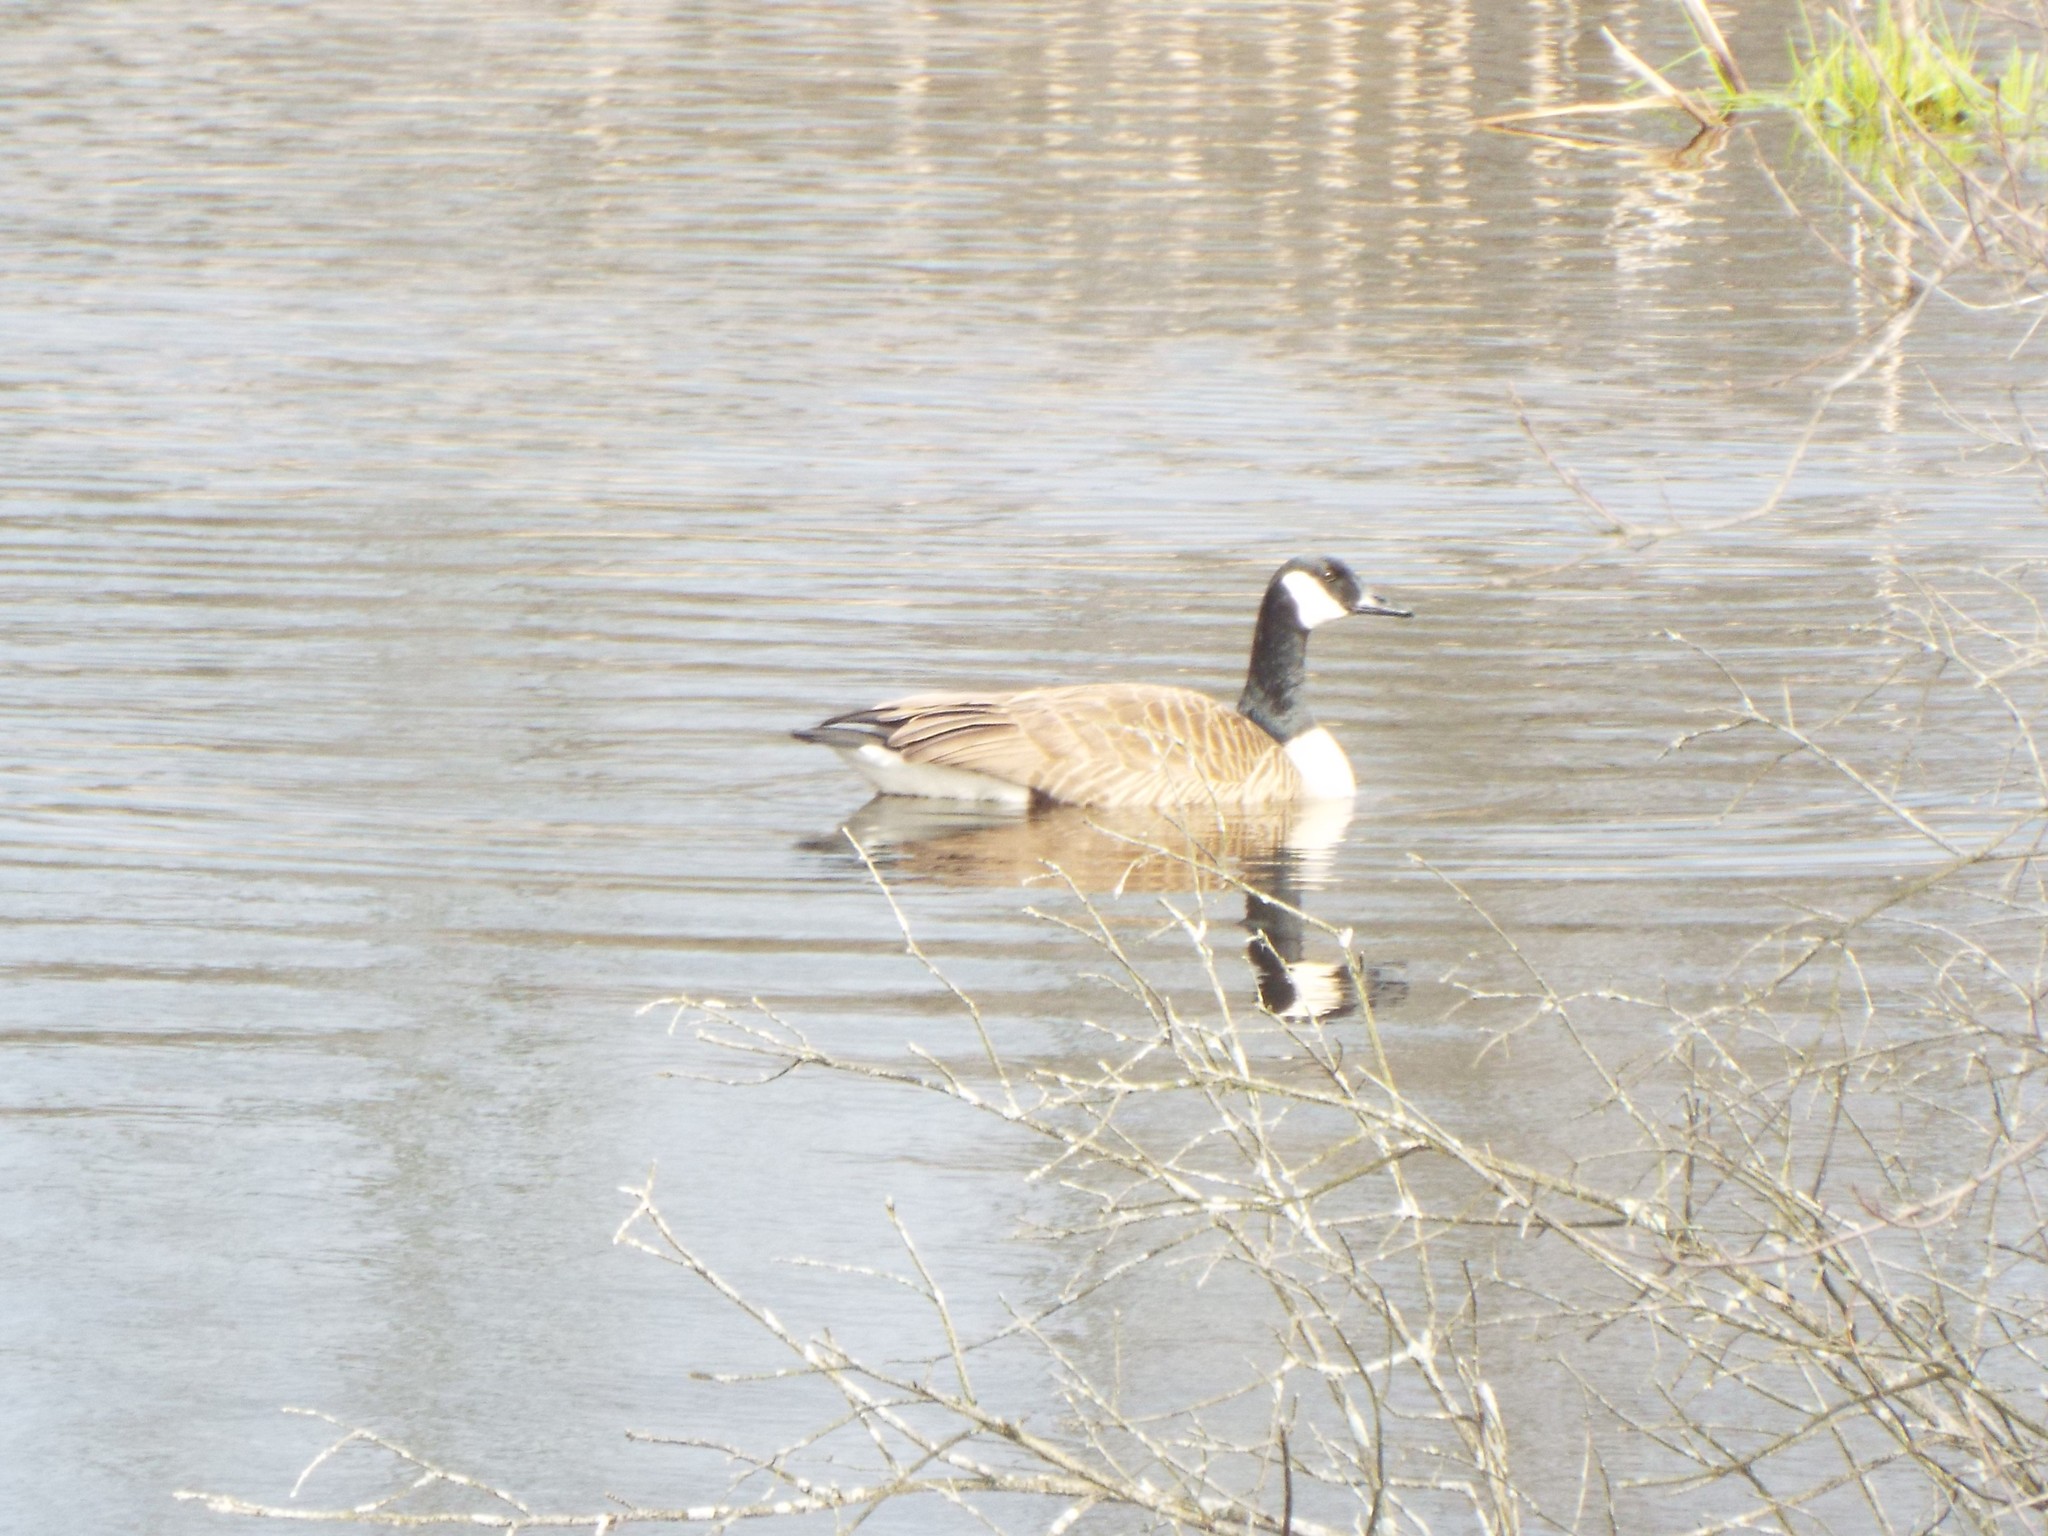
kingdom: Animalia
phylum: Chordata
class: Aves
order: Anseriformes
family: Anatidae
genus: Branta
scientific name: Branta canadensis
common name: Canada goose
